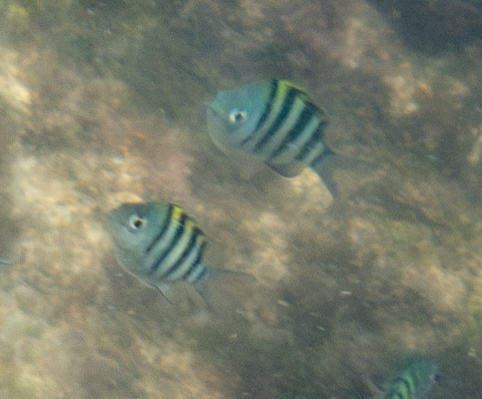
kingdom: Animalia
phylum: Chordata
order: Perciformes
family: Pomacentridae
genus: Abudefduf
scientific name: Abudefduf vaigiensis
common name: Indo-pacific sergeant
